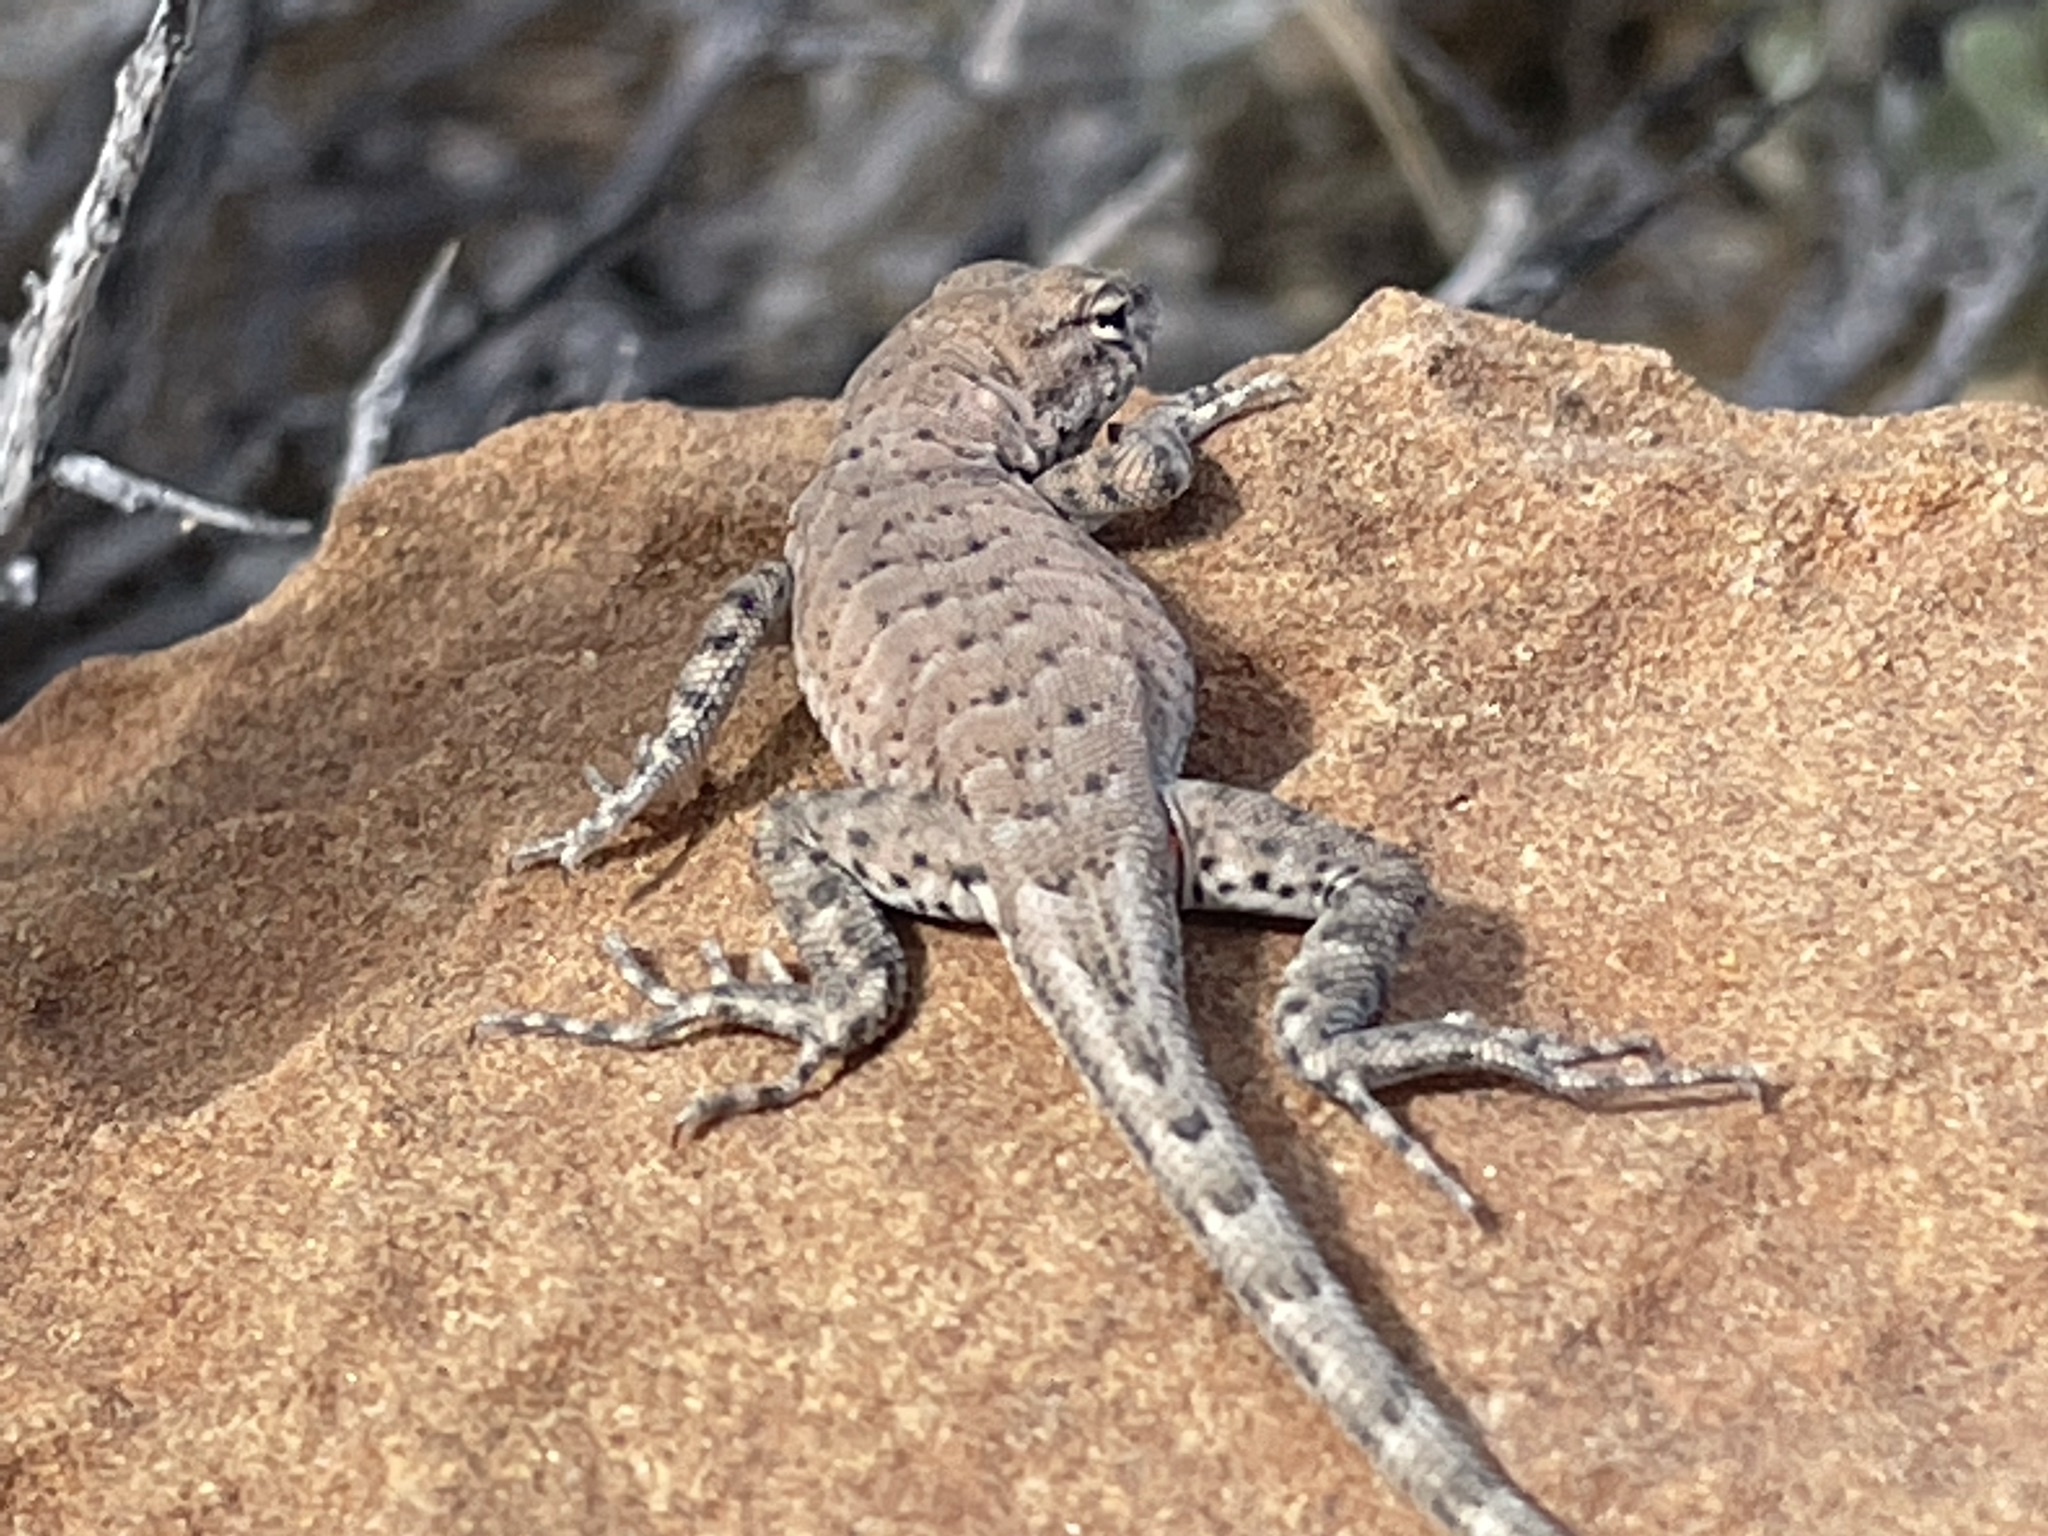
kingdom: Animalia
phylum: Chordata
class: Squamata
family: Phrynosomatidae
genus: Uta
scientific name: Uta stansburiana
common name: Side-blotched lizard
